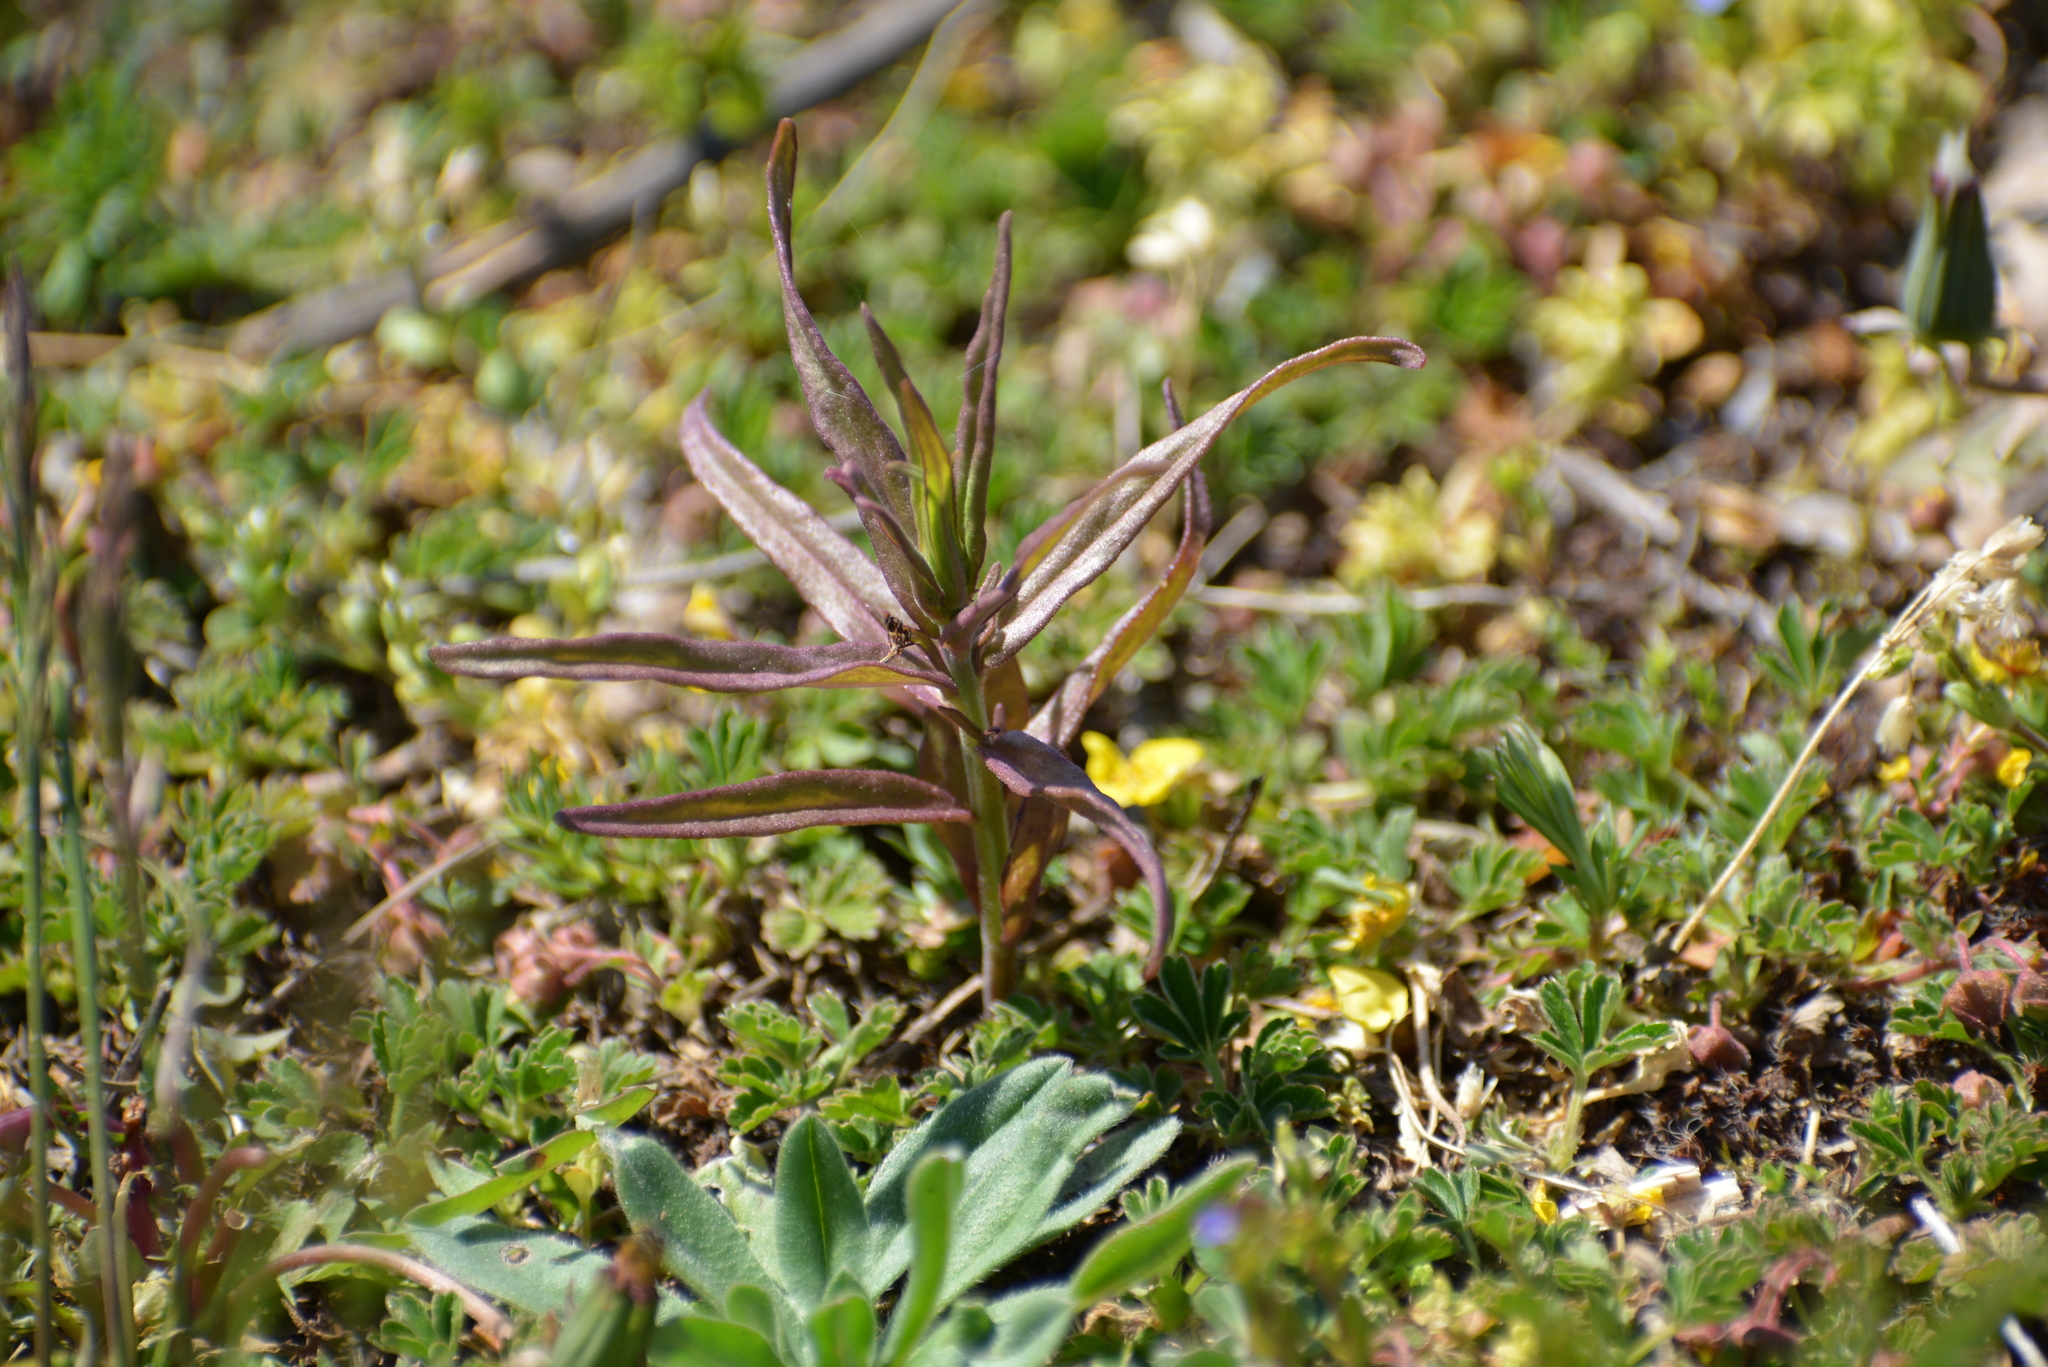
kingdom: Plantae
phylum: Tracheophyta
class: Magnoliopsida
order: Lamiales
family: Orobanchaceae
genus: Melampyrum
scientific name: Melampyrum pratense
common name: Common cow-wheat
